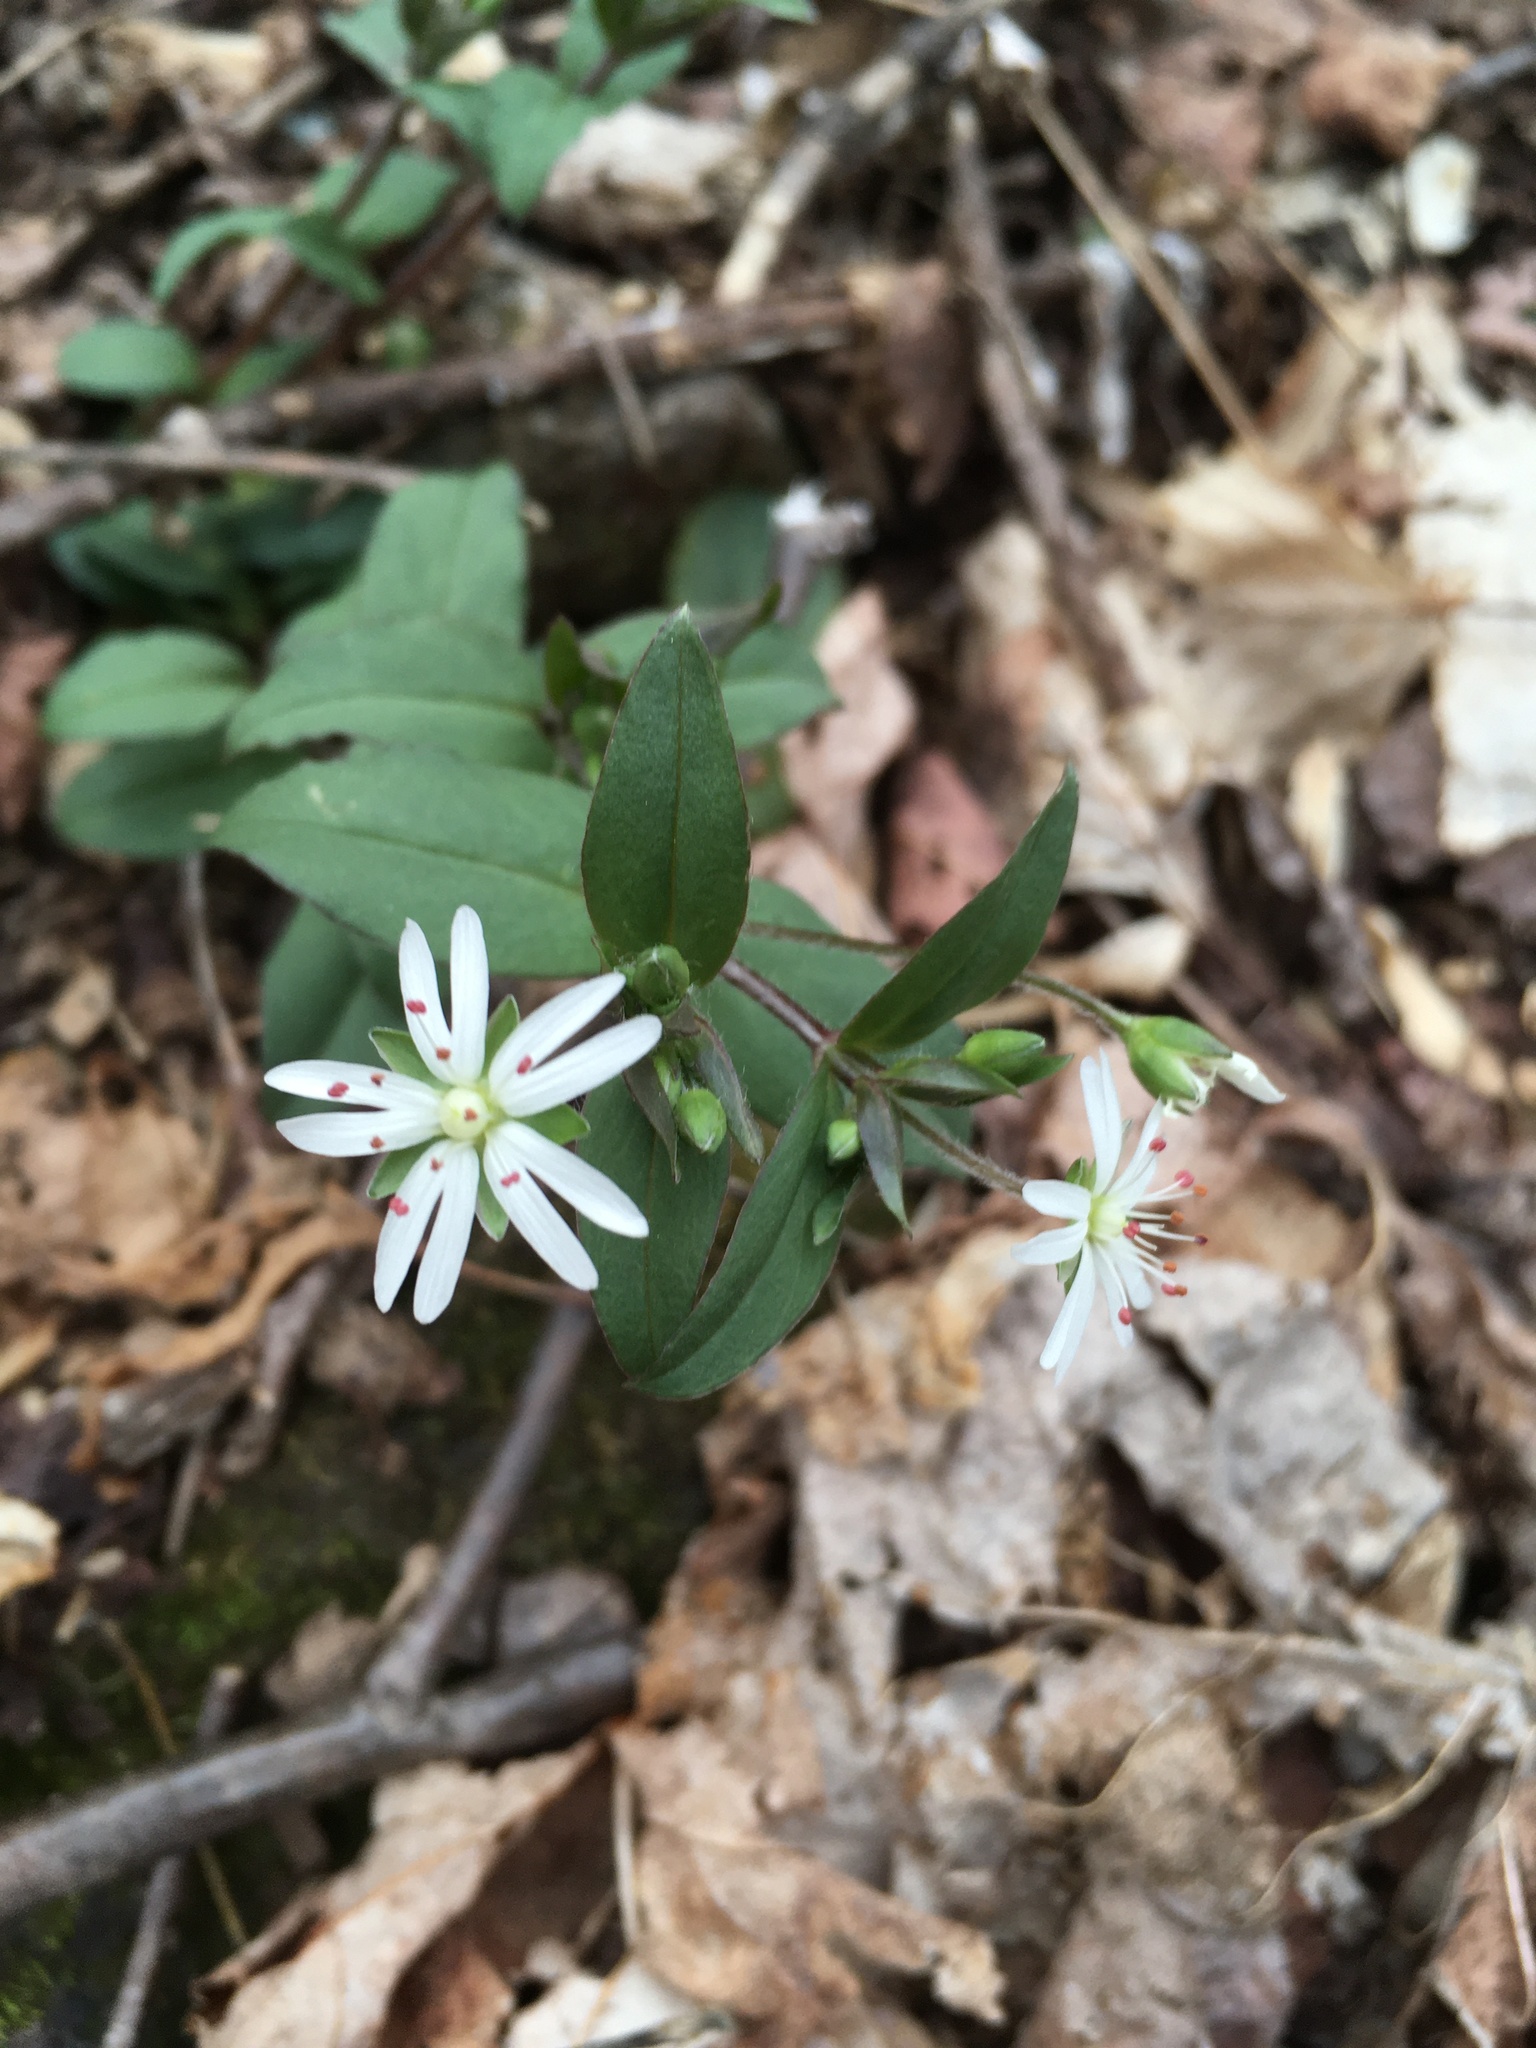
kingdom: Plantae
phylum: Tracheophyta
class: Magnoliopsida
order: Caryophyllales
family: Caryophyllaceae
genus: Stellaria
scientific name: Stellaria pubera
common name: Star chickweed
